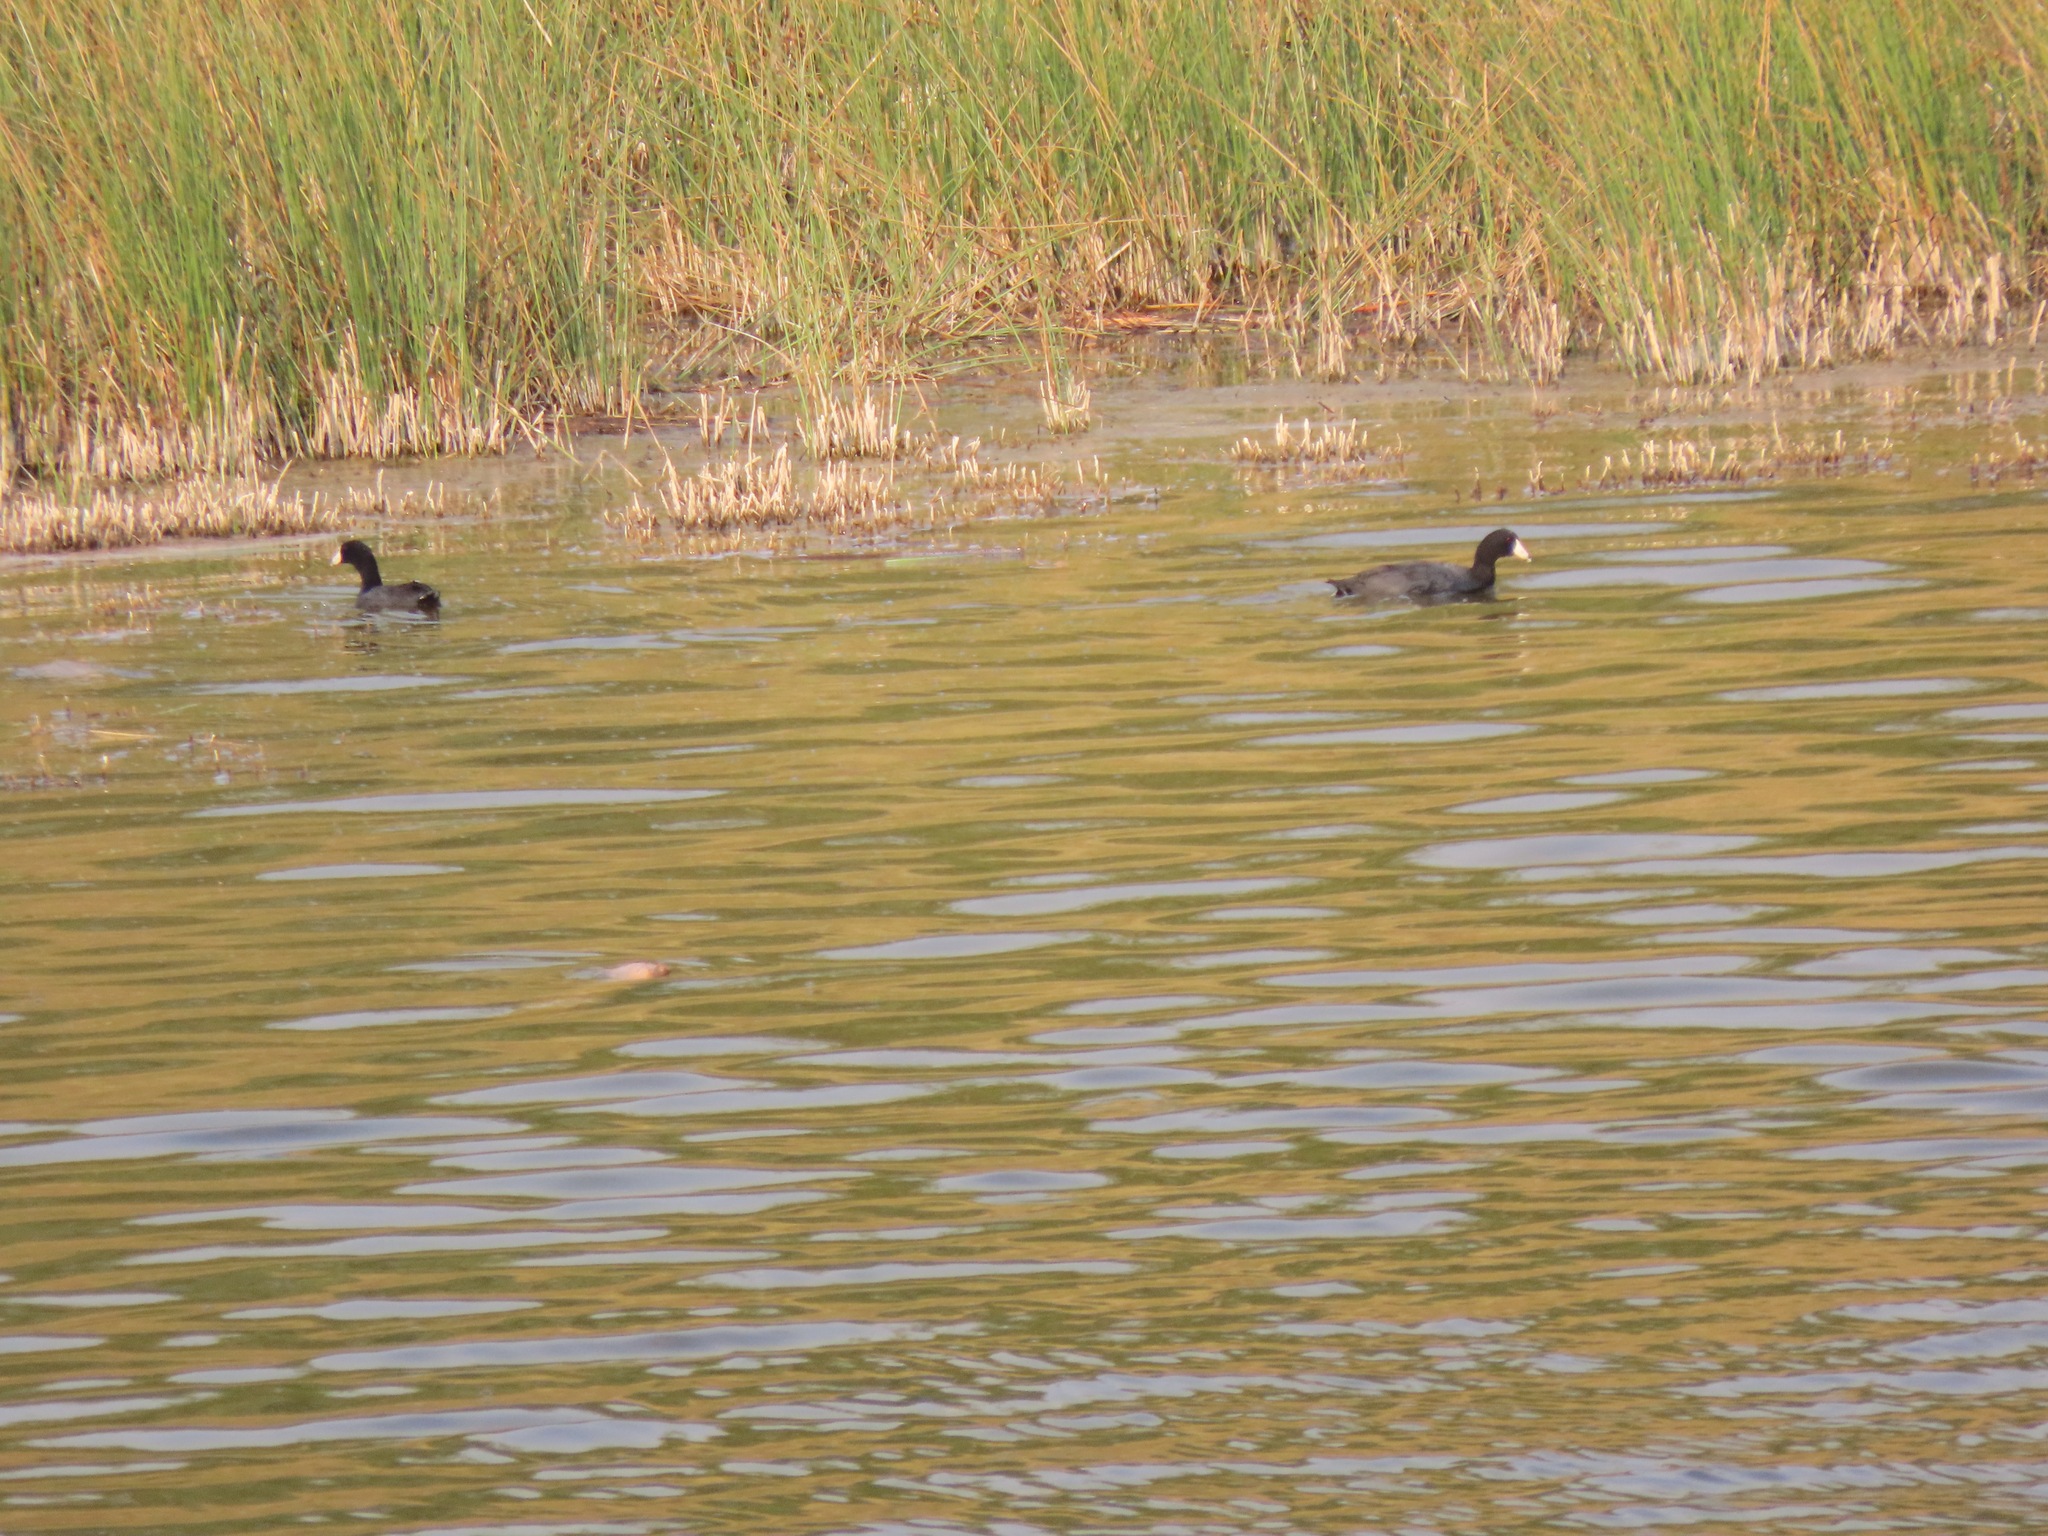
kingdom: Animalia
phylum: Chordata
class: Aves
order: Gruiformes
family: Rallidae
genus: Fulica
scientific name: Fulica americana
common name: American coot
